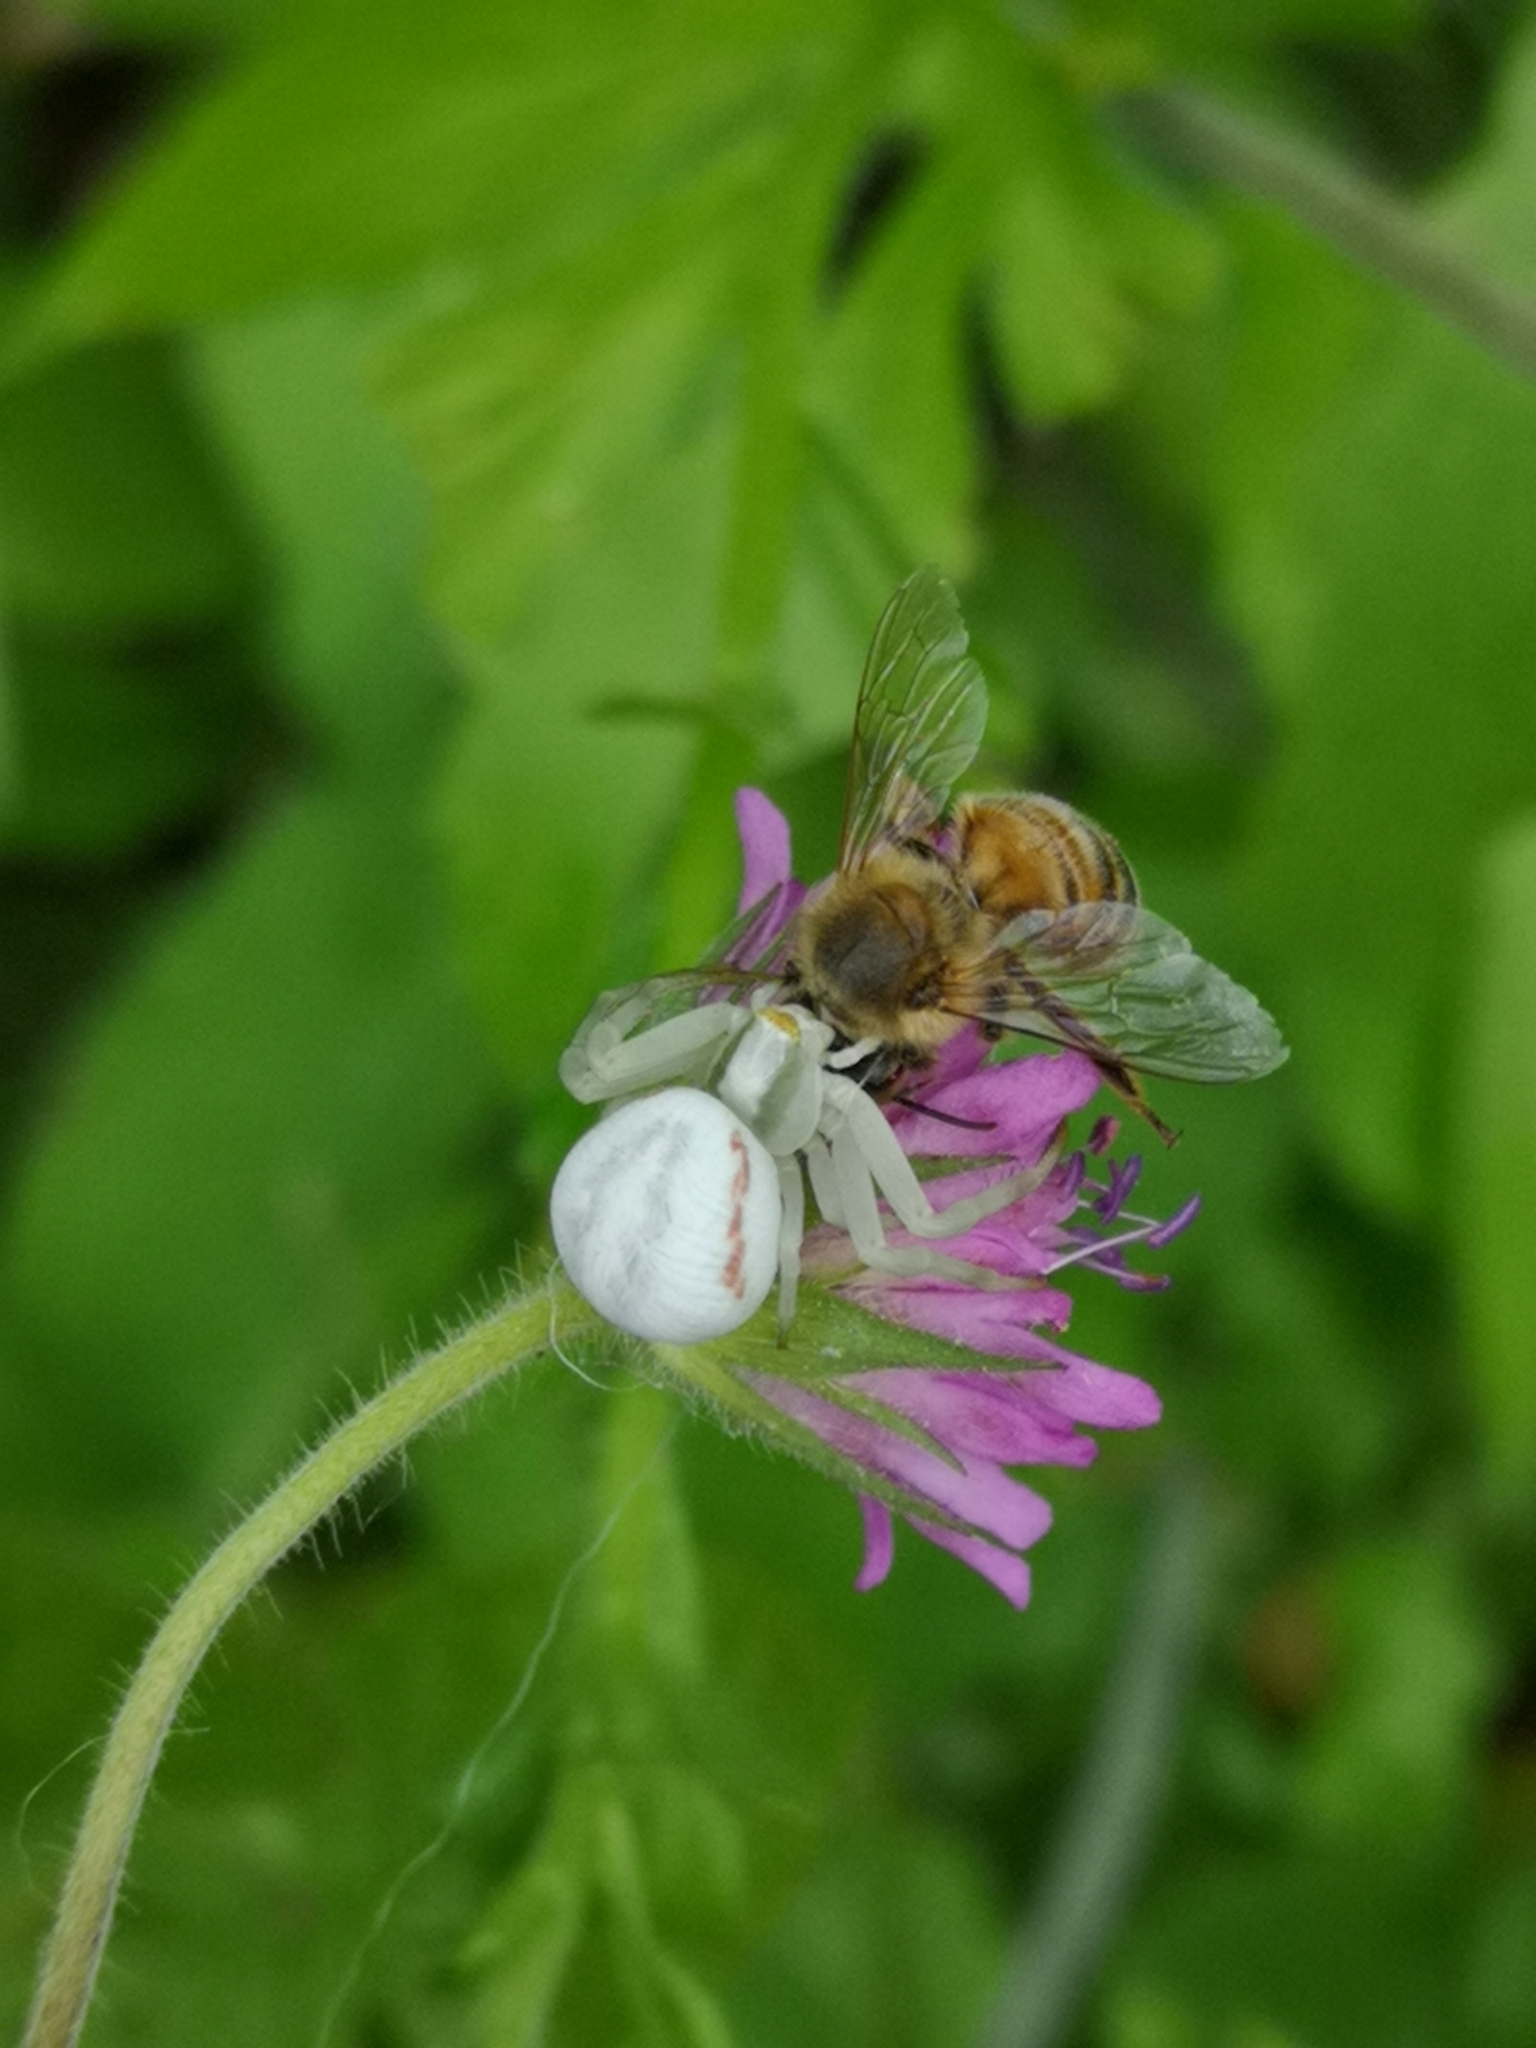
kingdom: Animalia
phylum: Arthropoda
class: Arachnida
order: Araneae
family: Thomisidae
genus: Misumena
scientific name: Misumena vatia
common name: Goldenrod crab spider
